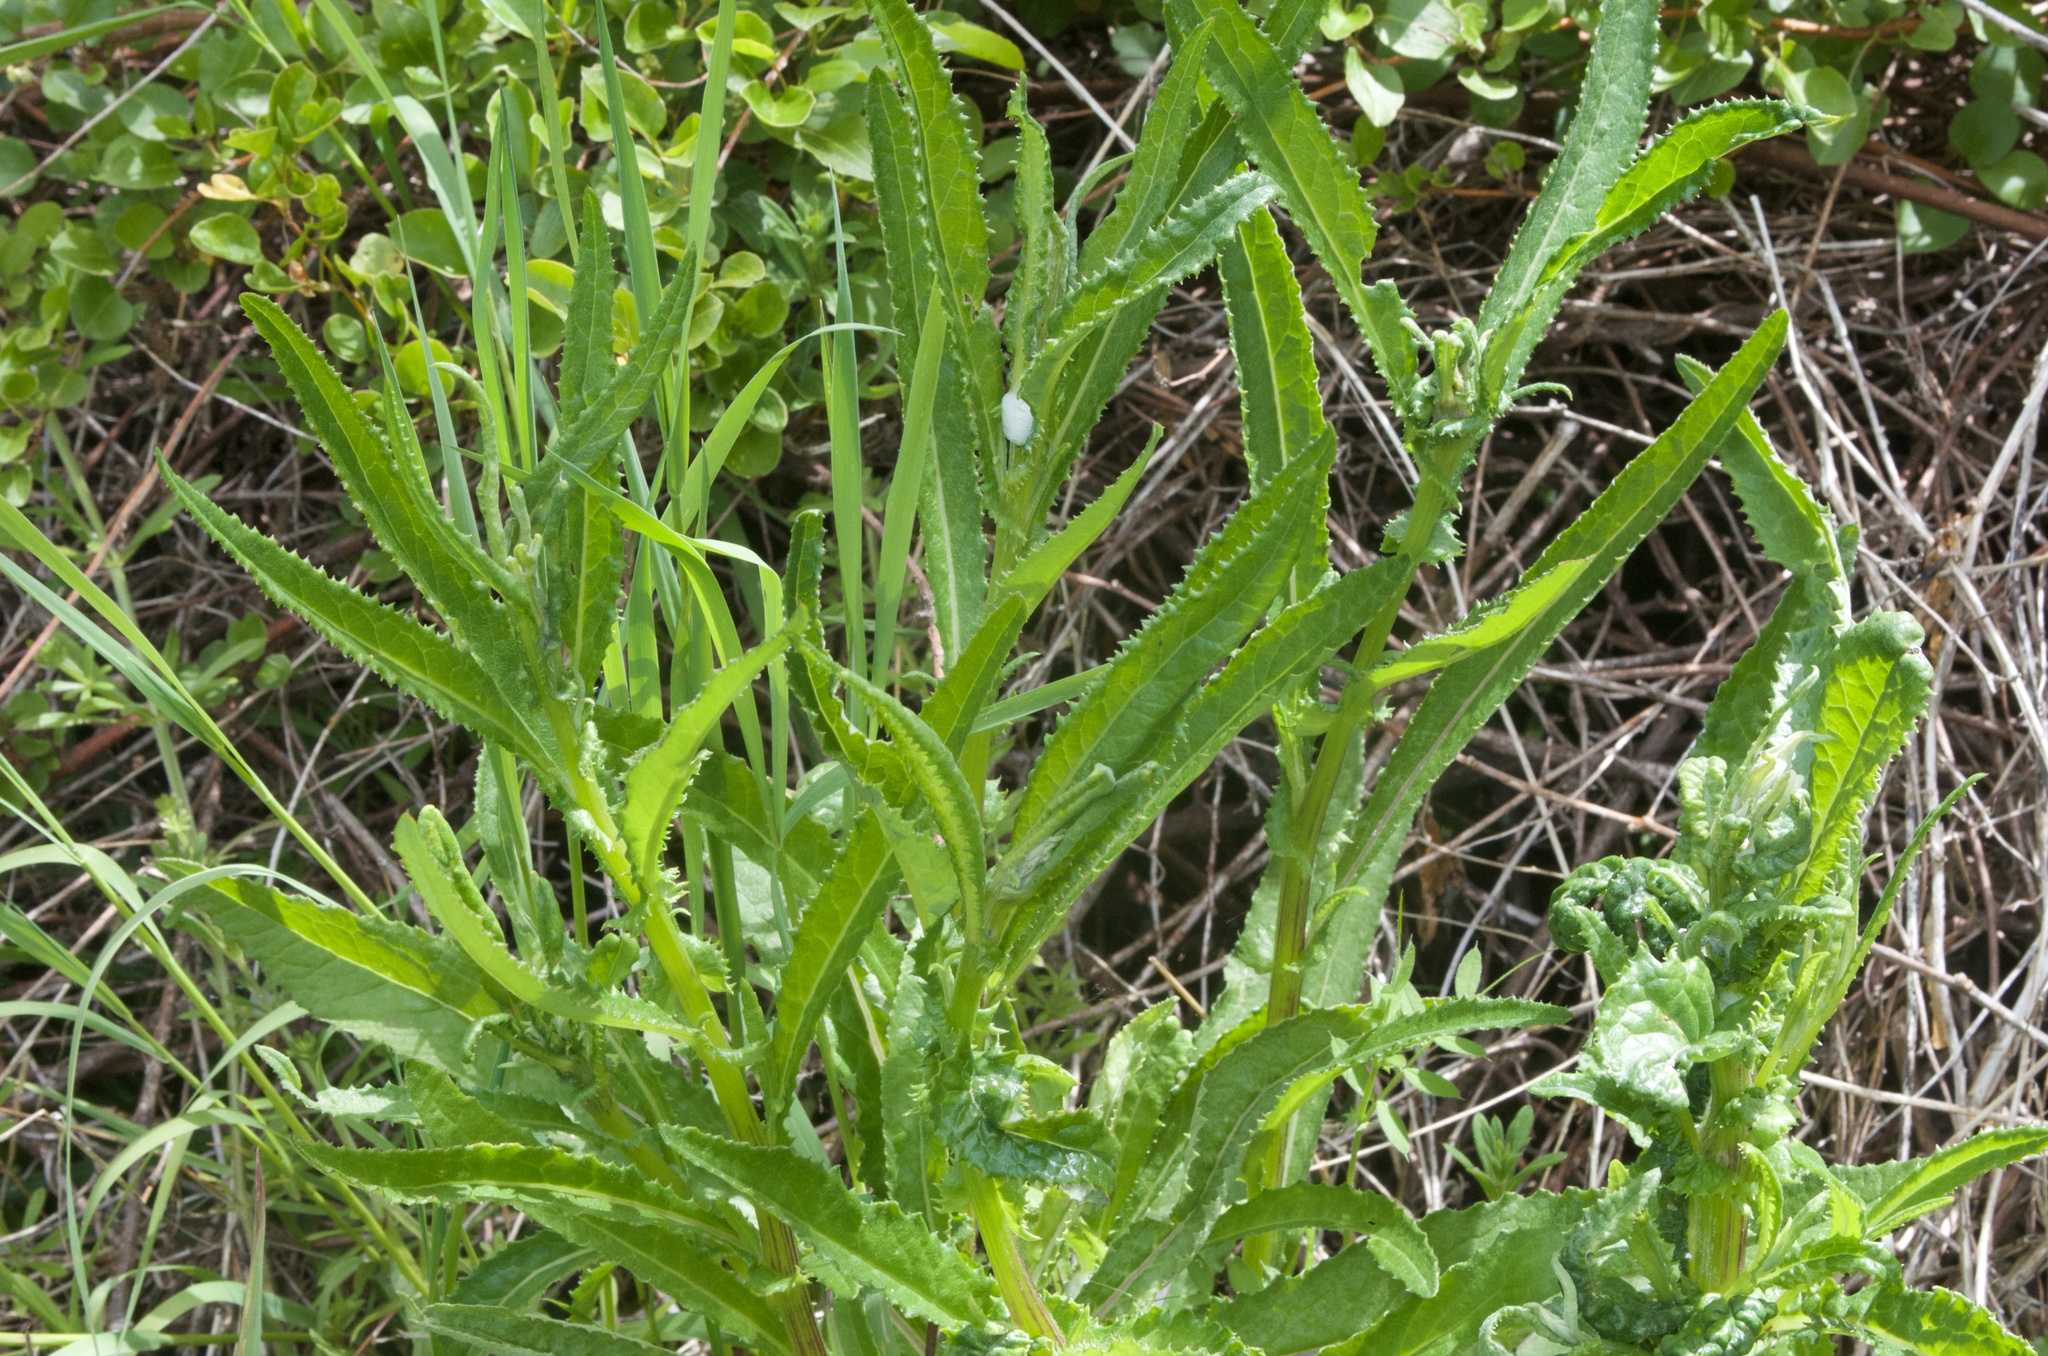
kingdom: Plantae
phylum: Tracheophyta
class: Magnoliopsida
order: Asterales
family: Asteraceae
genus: Senecio
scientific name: Senecio minimus
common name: Toothed fireweed
